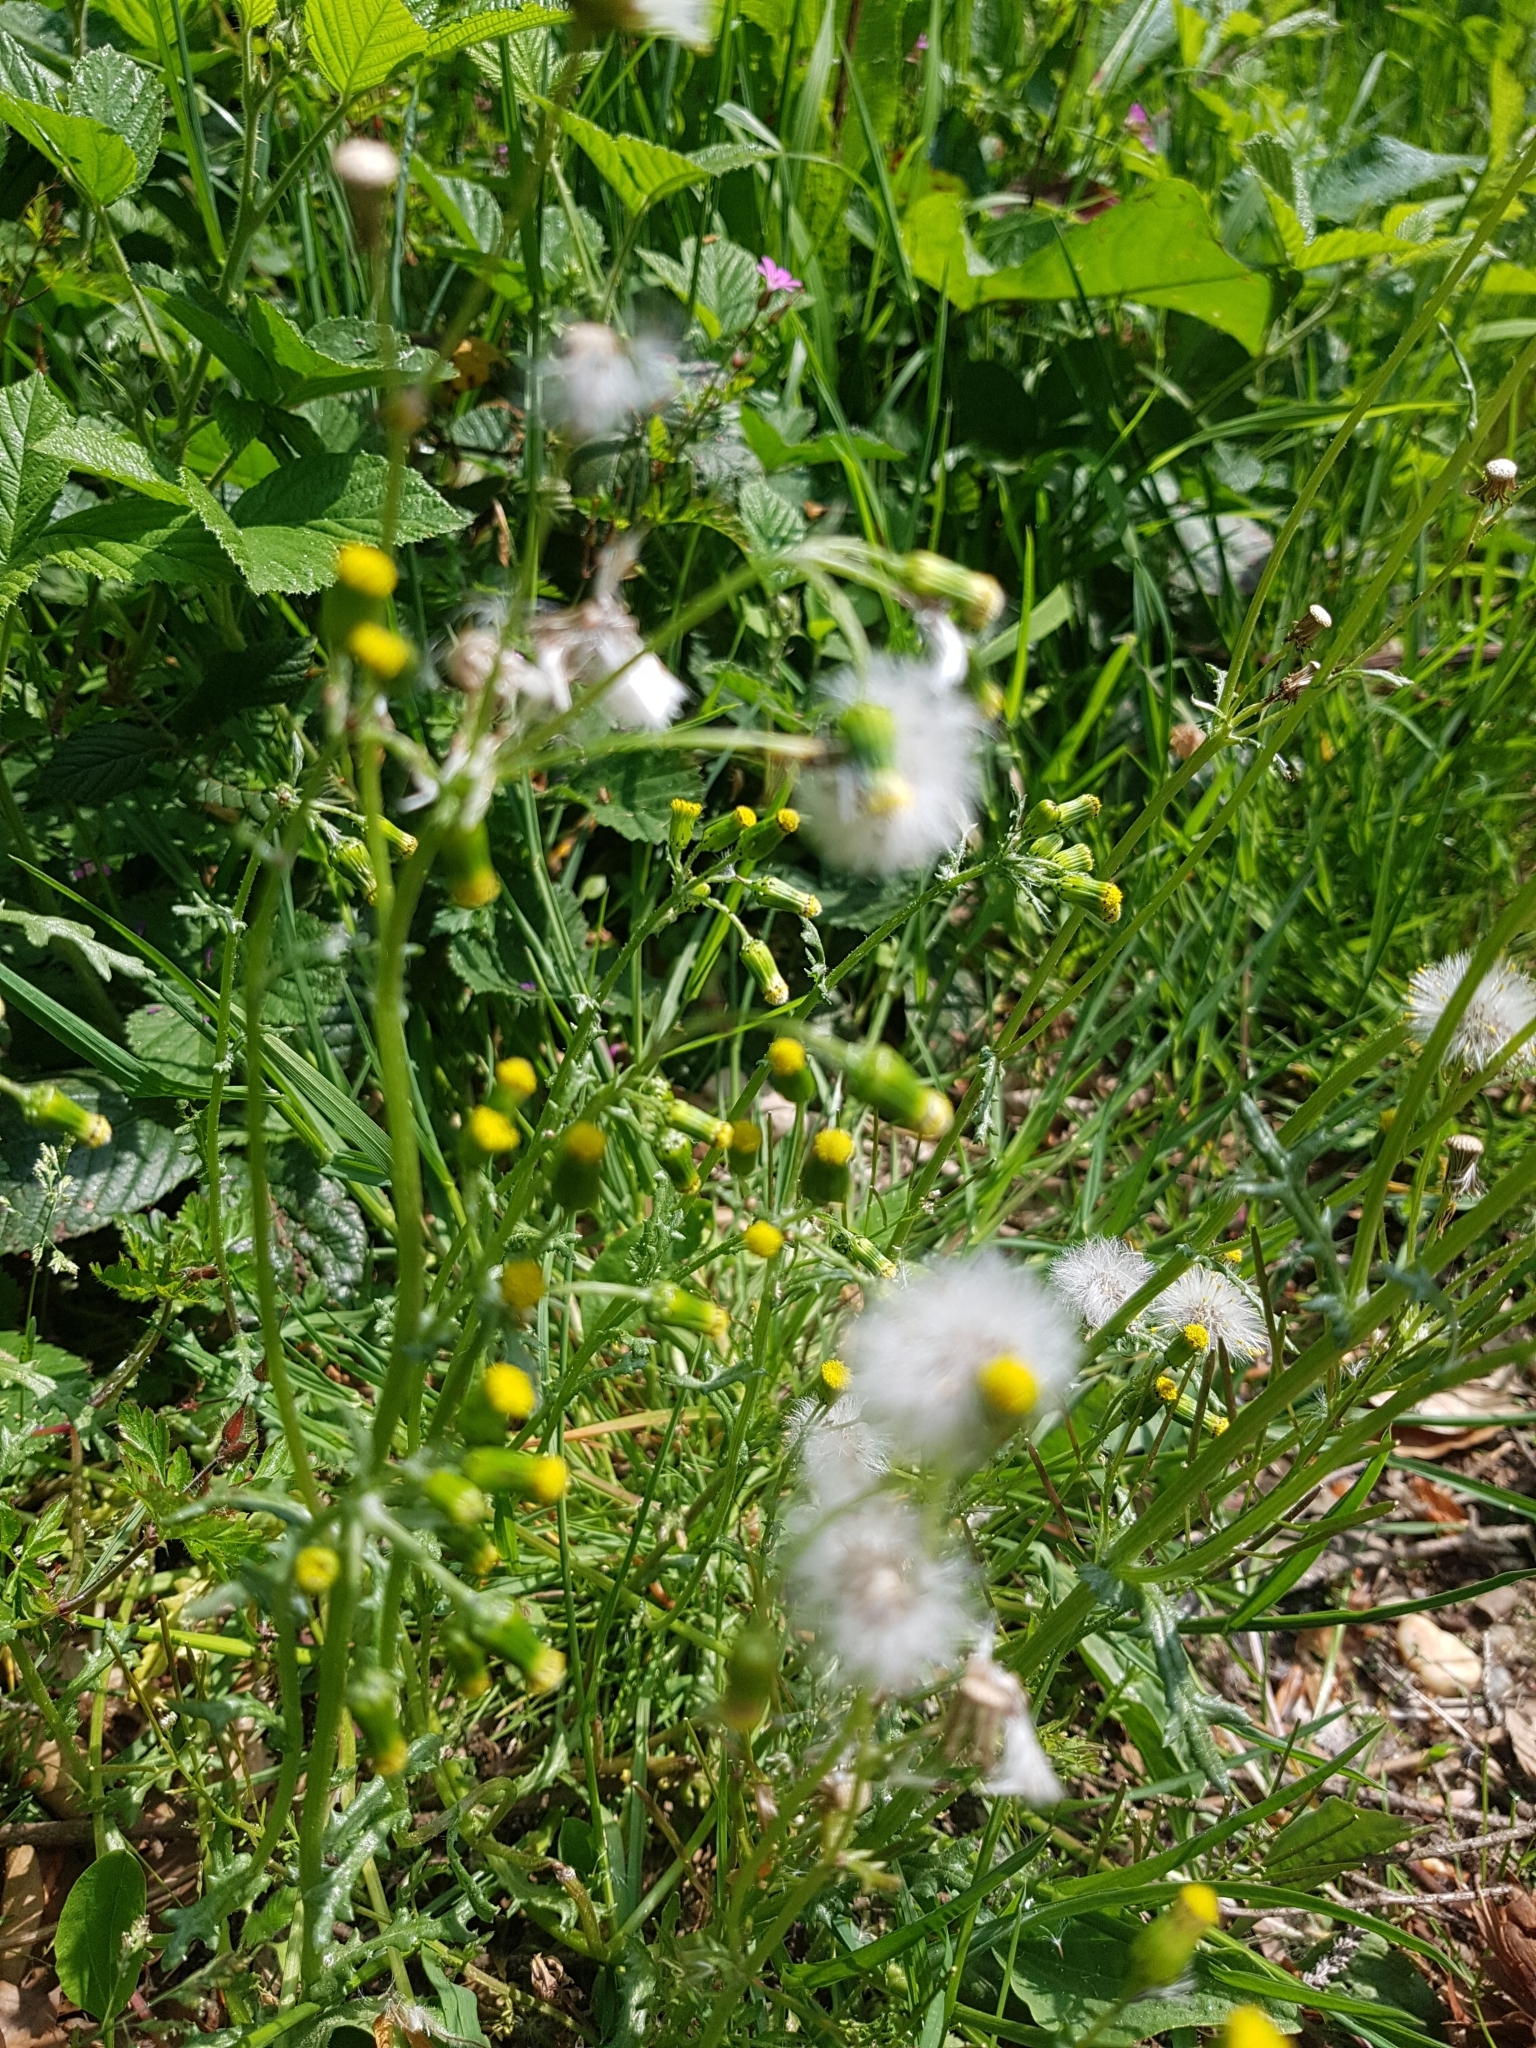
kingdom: Plantae
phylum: Tracheophyta
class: Magnoliopsida
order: Asterales
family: Asteraceae
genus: Senecio
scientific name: Senecio vulgaris
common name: Old-man-in-the-spring
